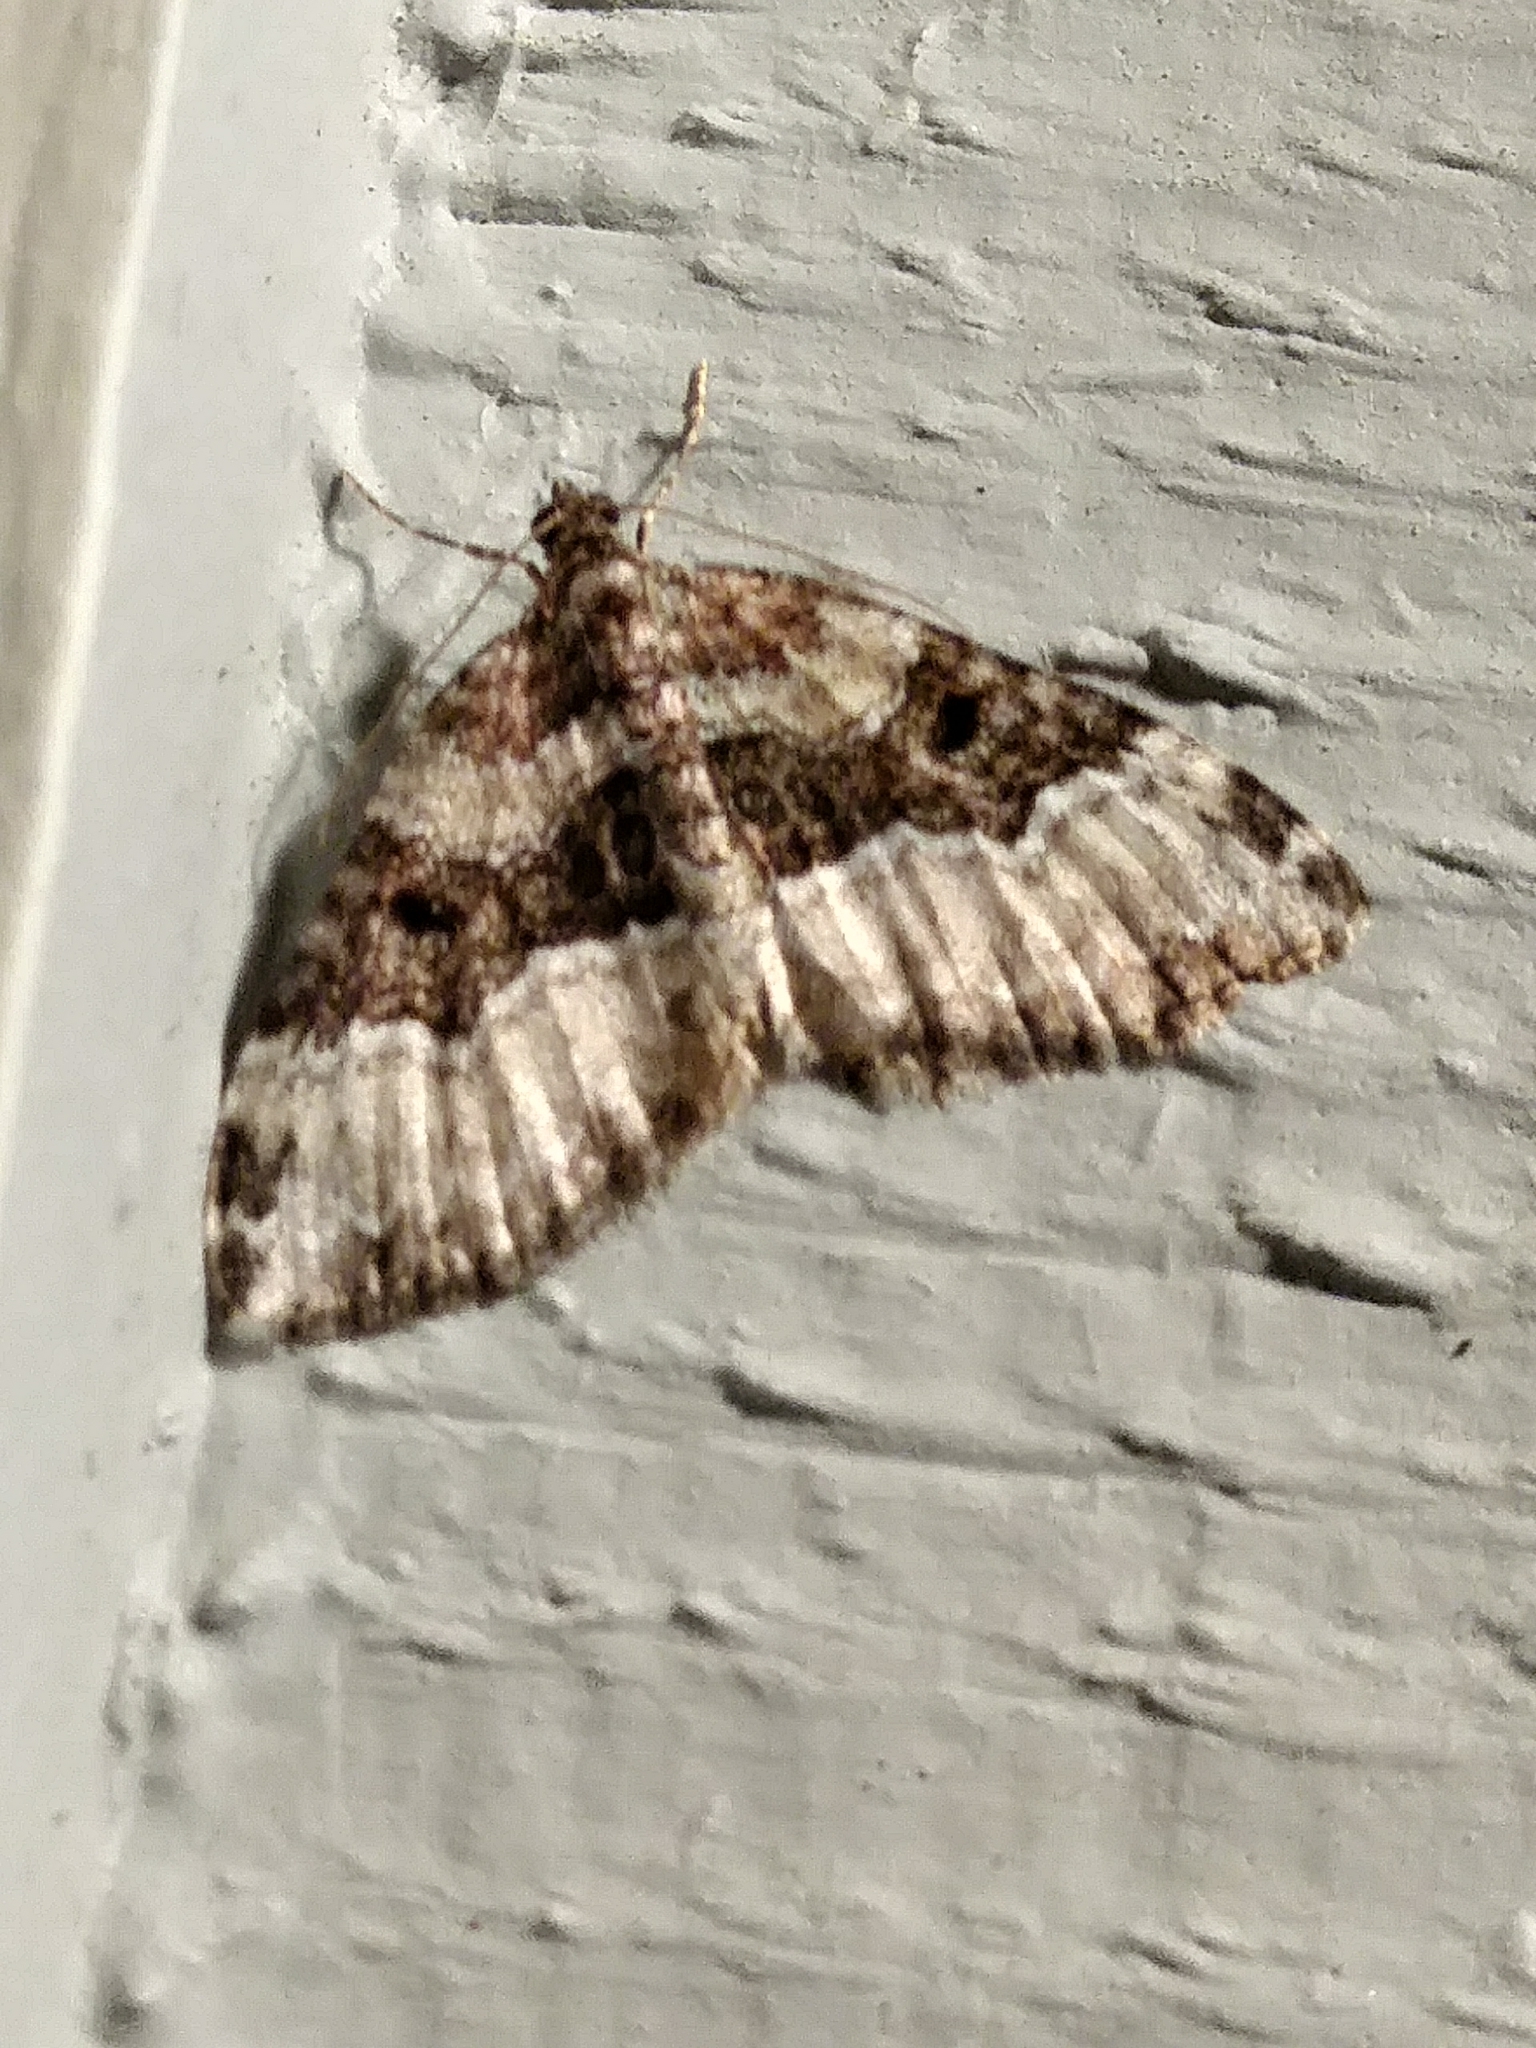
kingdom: Animalia
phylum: Arthropoda
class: Insecta
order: Lepidoptera
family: Geometridae
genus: Xanthorhoe
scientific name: Xanthorhoe lacustrata
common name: Toothed brown carpet
